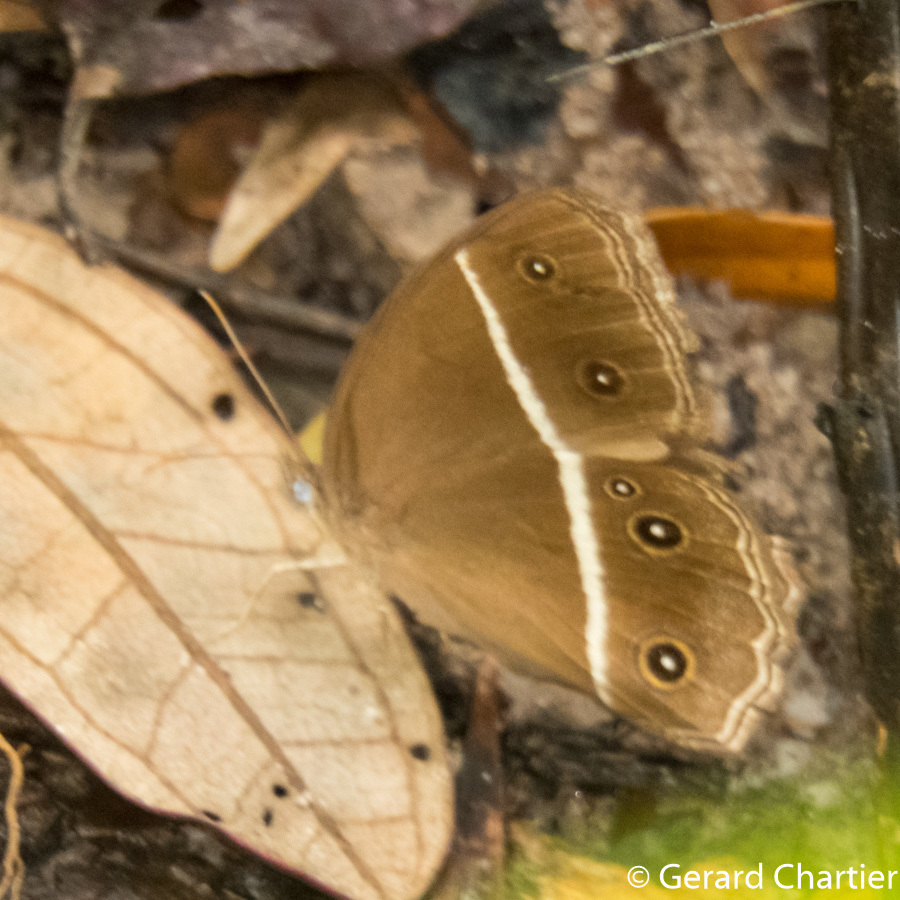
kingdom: Animalia
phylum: Arthropoda
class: Insecta
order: Lepidoptera
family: Nymphalidae
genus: Orsotriaena
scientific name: Orsotriaena medus
